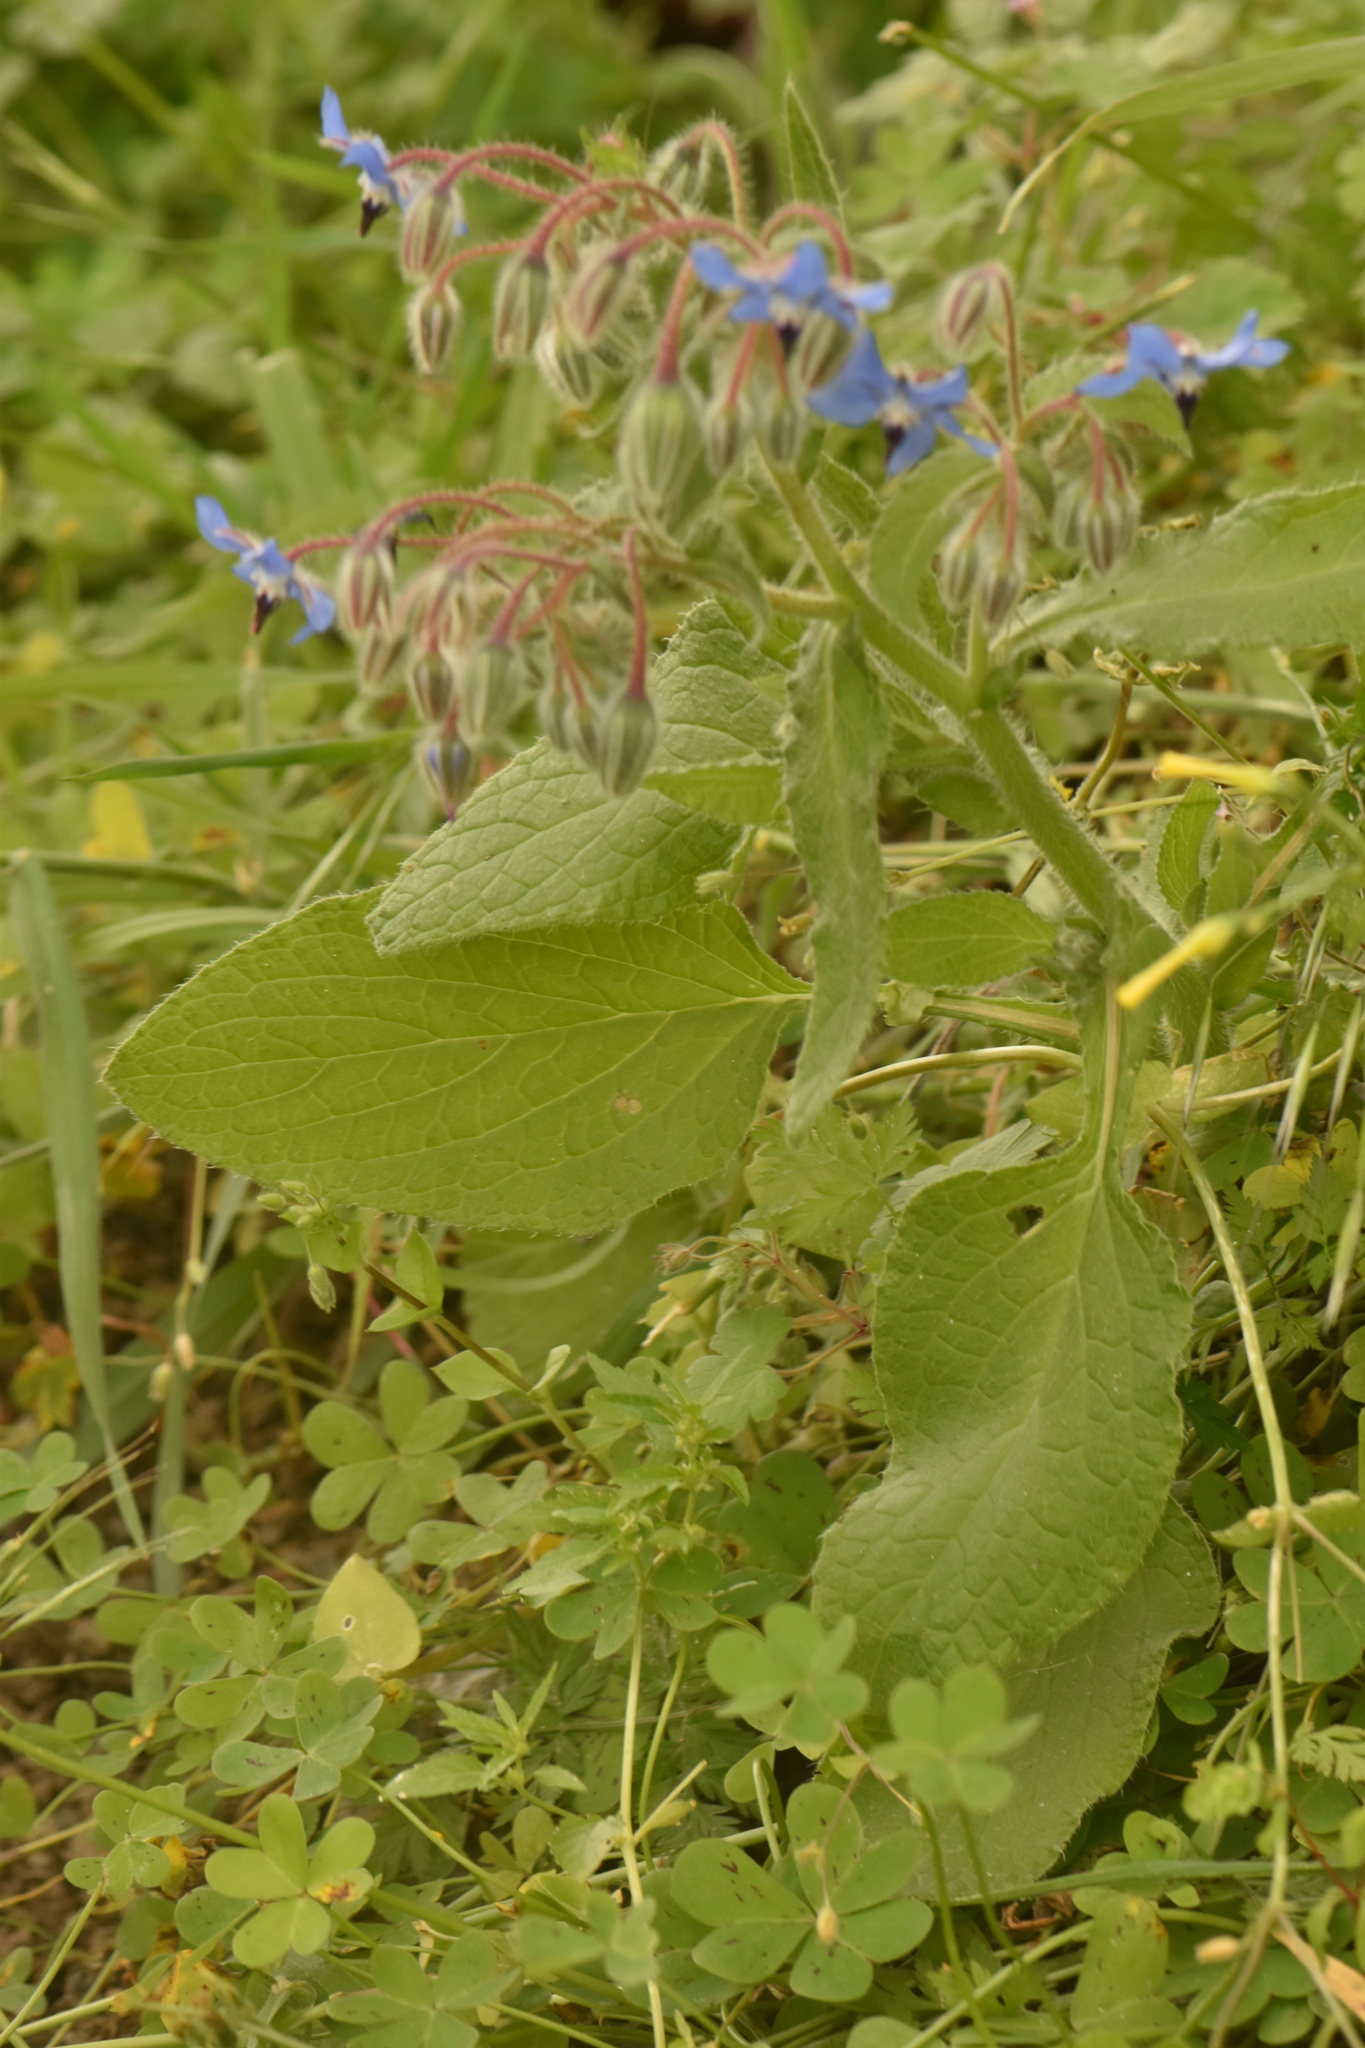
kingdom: Plantae
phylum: Tracheophyta
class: Magnoliopsida
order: Boraginales
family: Boraginaceae
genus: Borago
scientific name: Borago officinalis
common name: Borage
